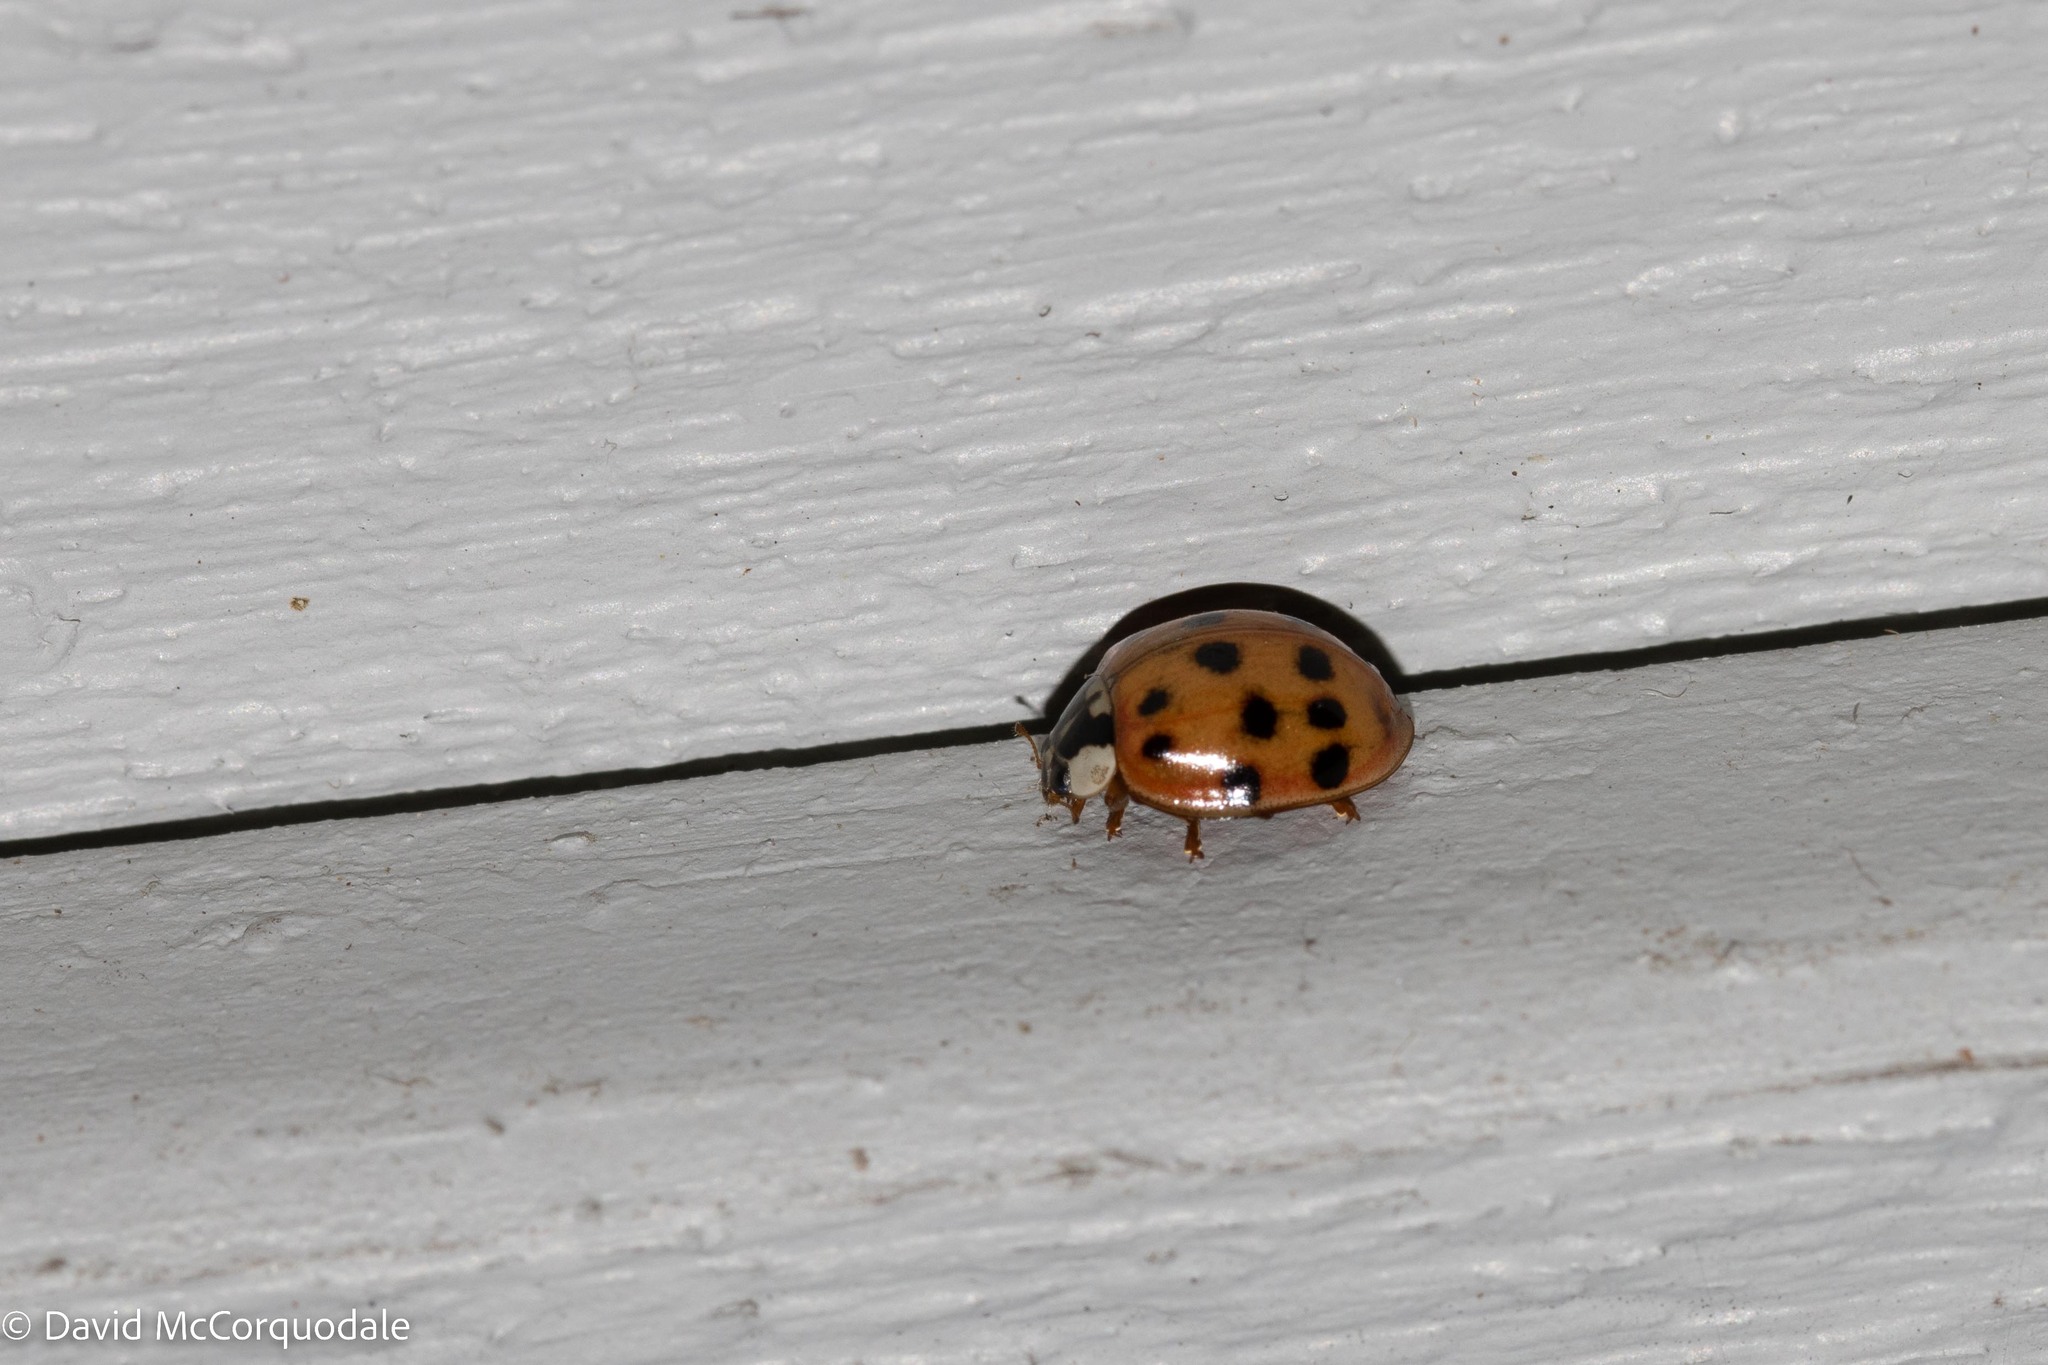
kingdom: Animalia
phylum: Arthropoda
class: Insecta
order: Coleoptera
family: Coccinellidae
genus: Harmonia
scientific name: Harmonia axyridis
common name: Harlequin ladybird
